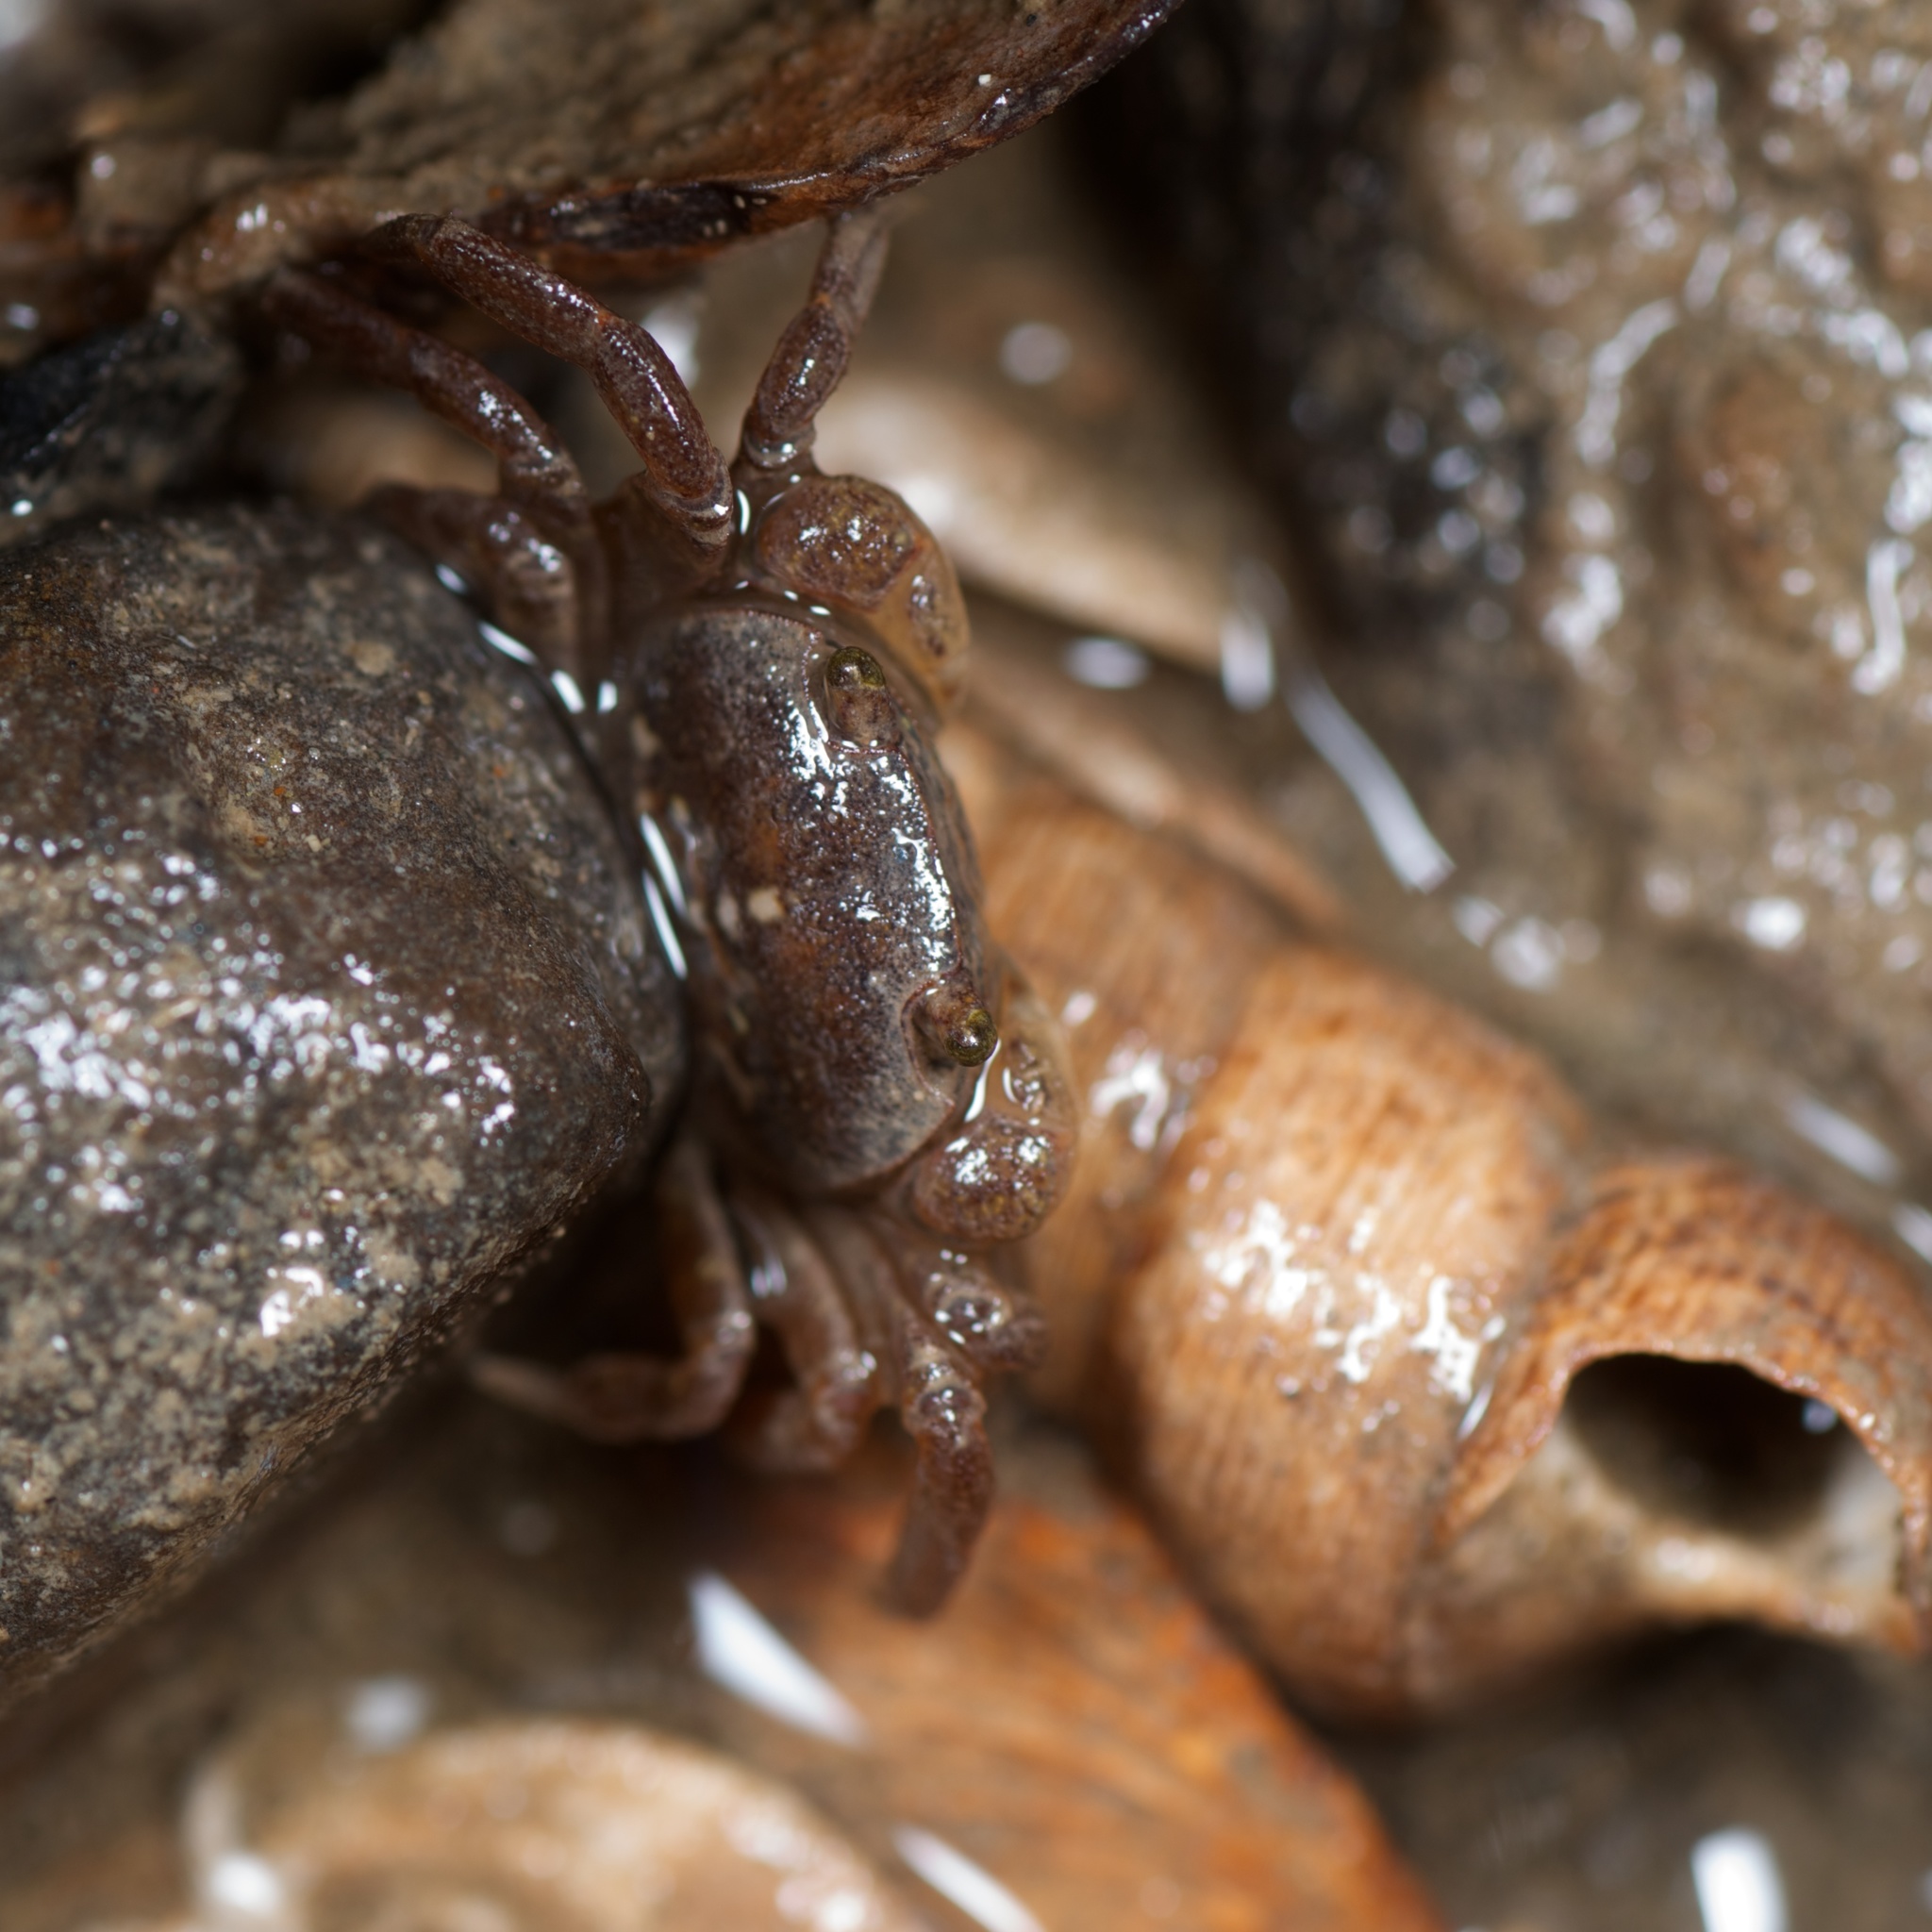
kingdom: Animalia
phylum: Arthropoda
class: Malacostraca
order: Decapoda
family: Varunidae
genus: Cyclograpsus
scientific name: Cyclograpsus lavauxi
